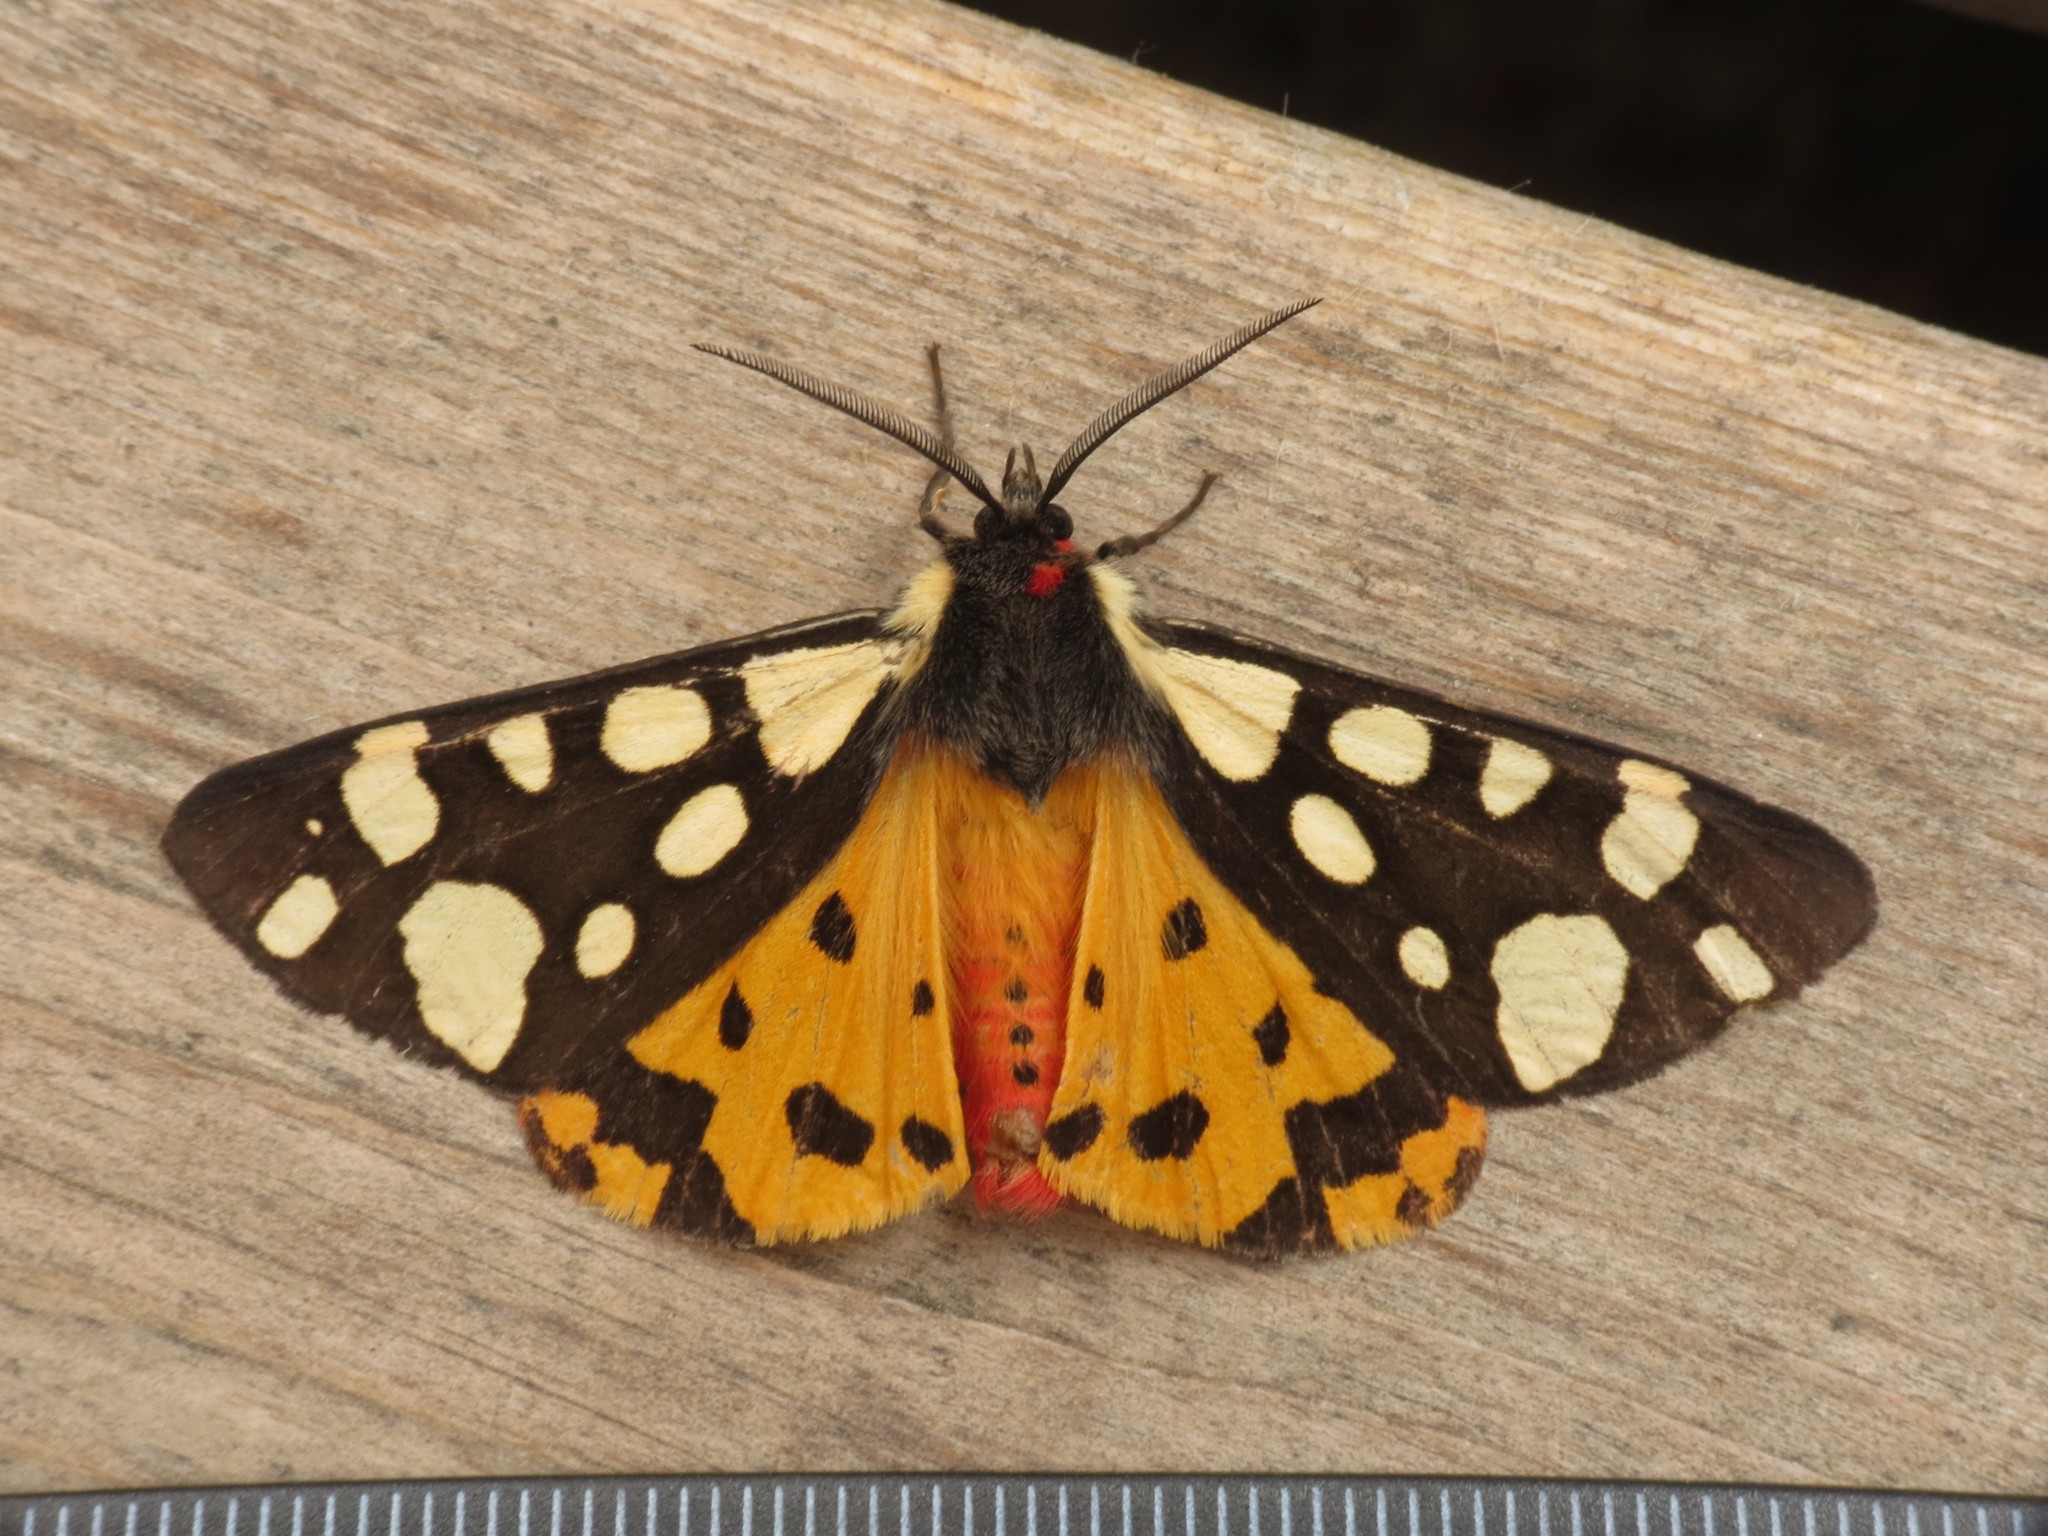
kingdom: Animalia
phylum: Arthropoda
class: Insecta
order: Lepidoptera
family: Erebidae
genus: Epicallia
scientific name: Epicallia villica
